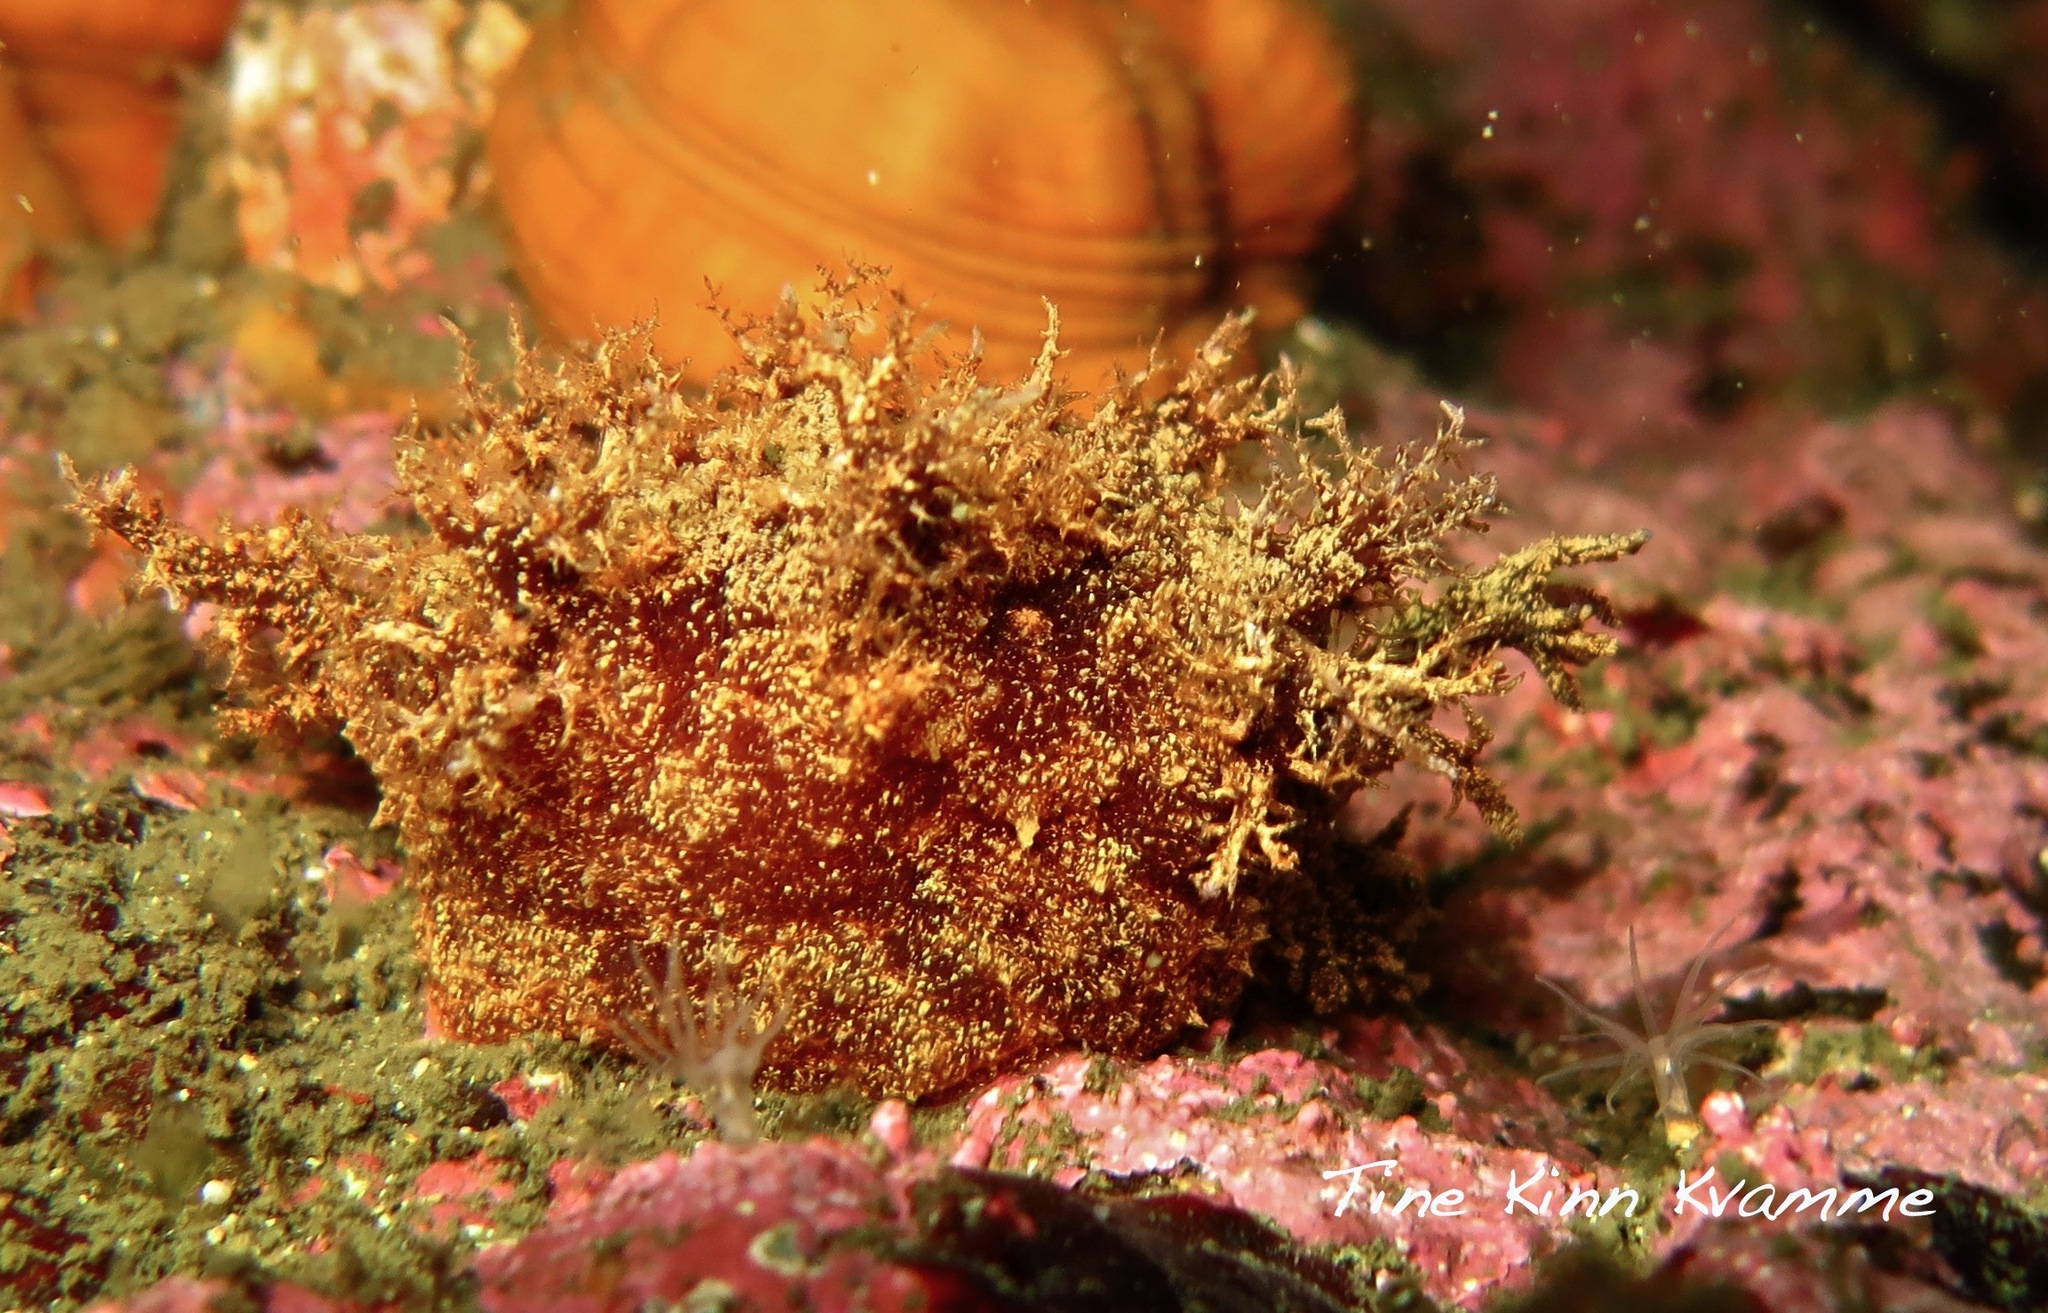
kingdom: Animalia
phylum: Mollusca
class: Gastropoda
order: Nudibranchia
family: Dendronotidae
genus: Dendronotus
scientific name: Dendronotus frondosus
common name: Bushy-backed nudibranch
